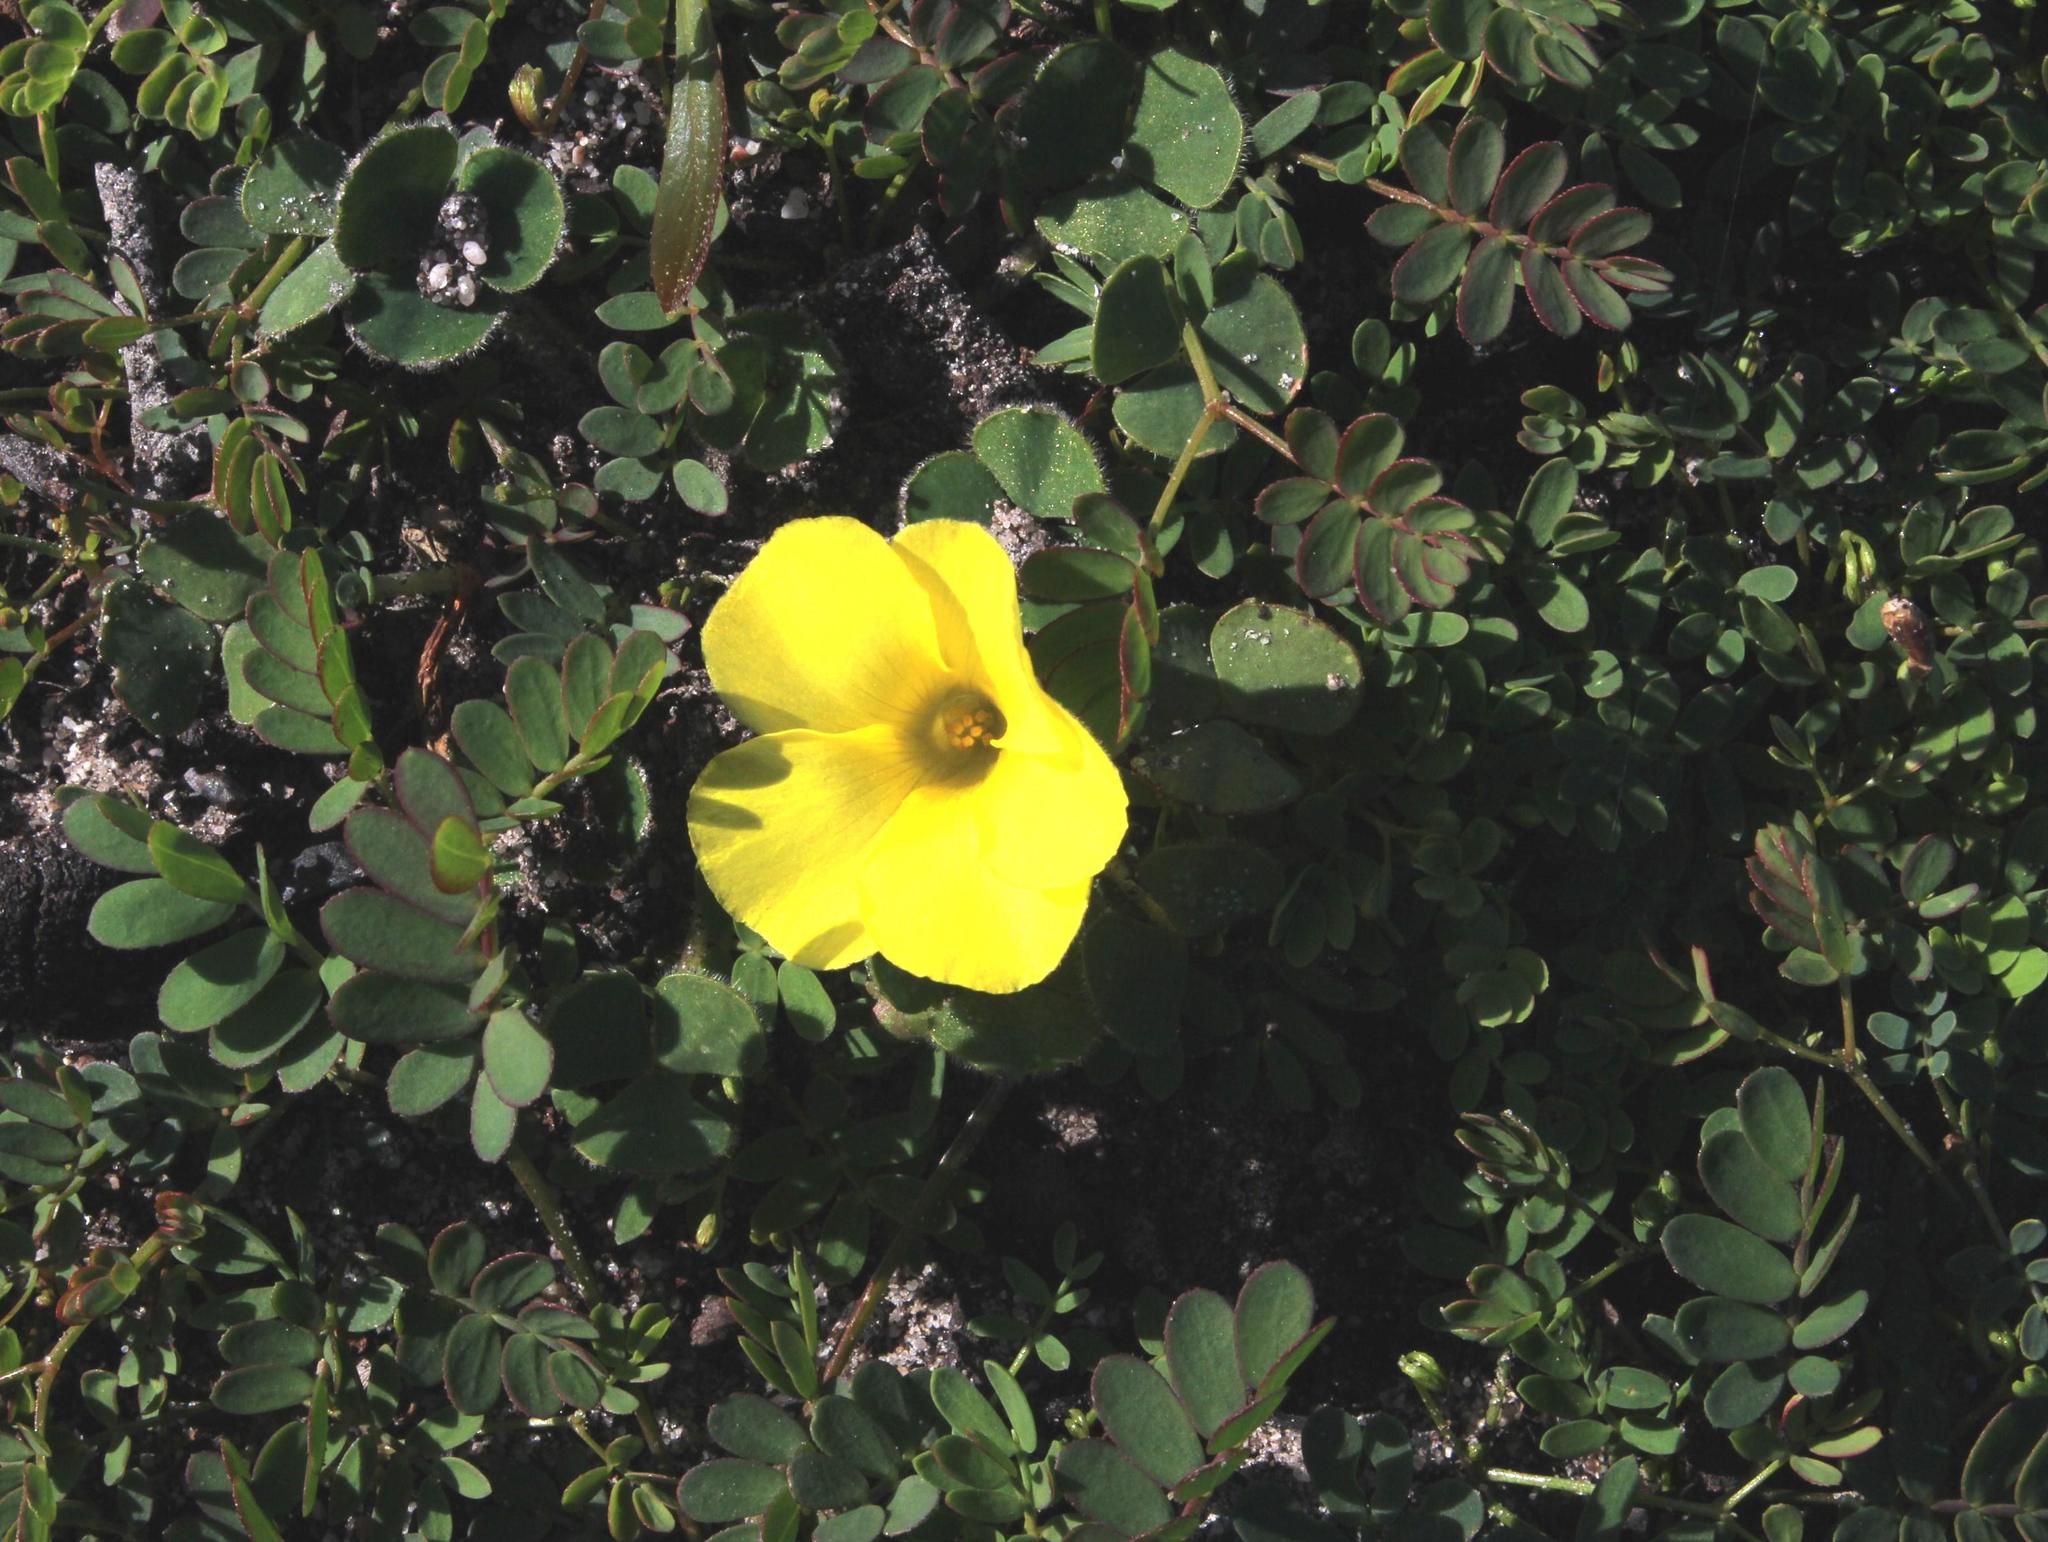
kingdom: Plantae
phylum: Tracheophyta
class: Magnoliopsida
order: Oxalidales
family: Oxalidaceae
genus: Oxalis
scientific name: Oxalis luteola
